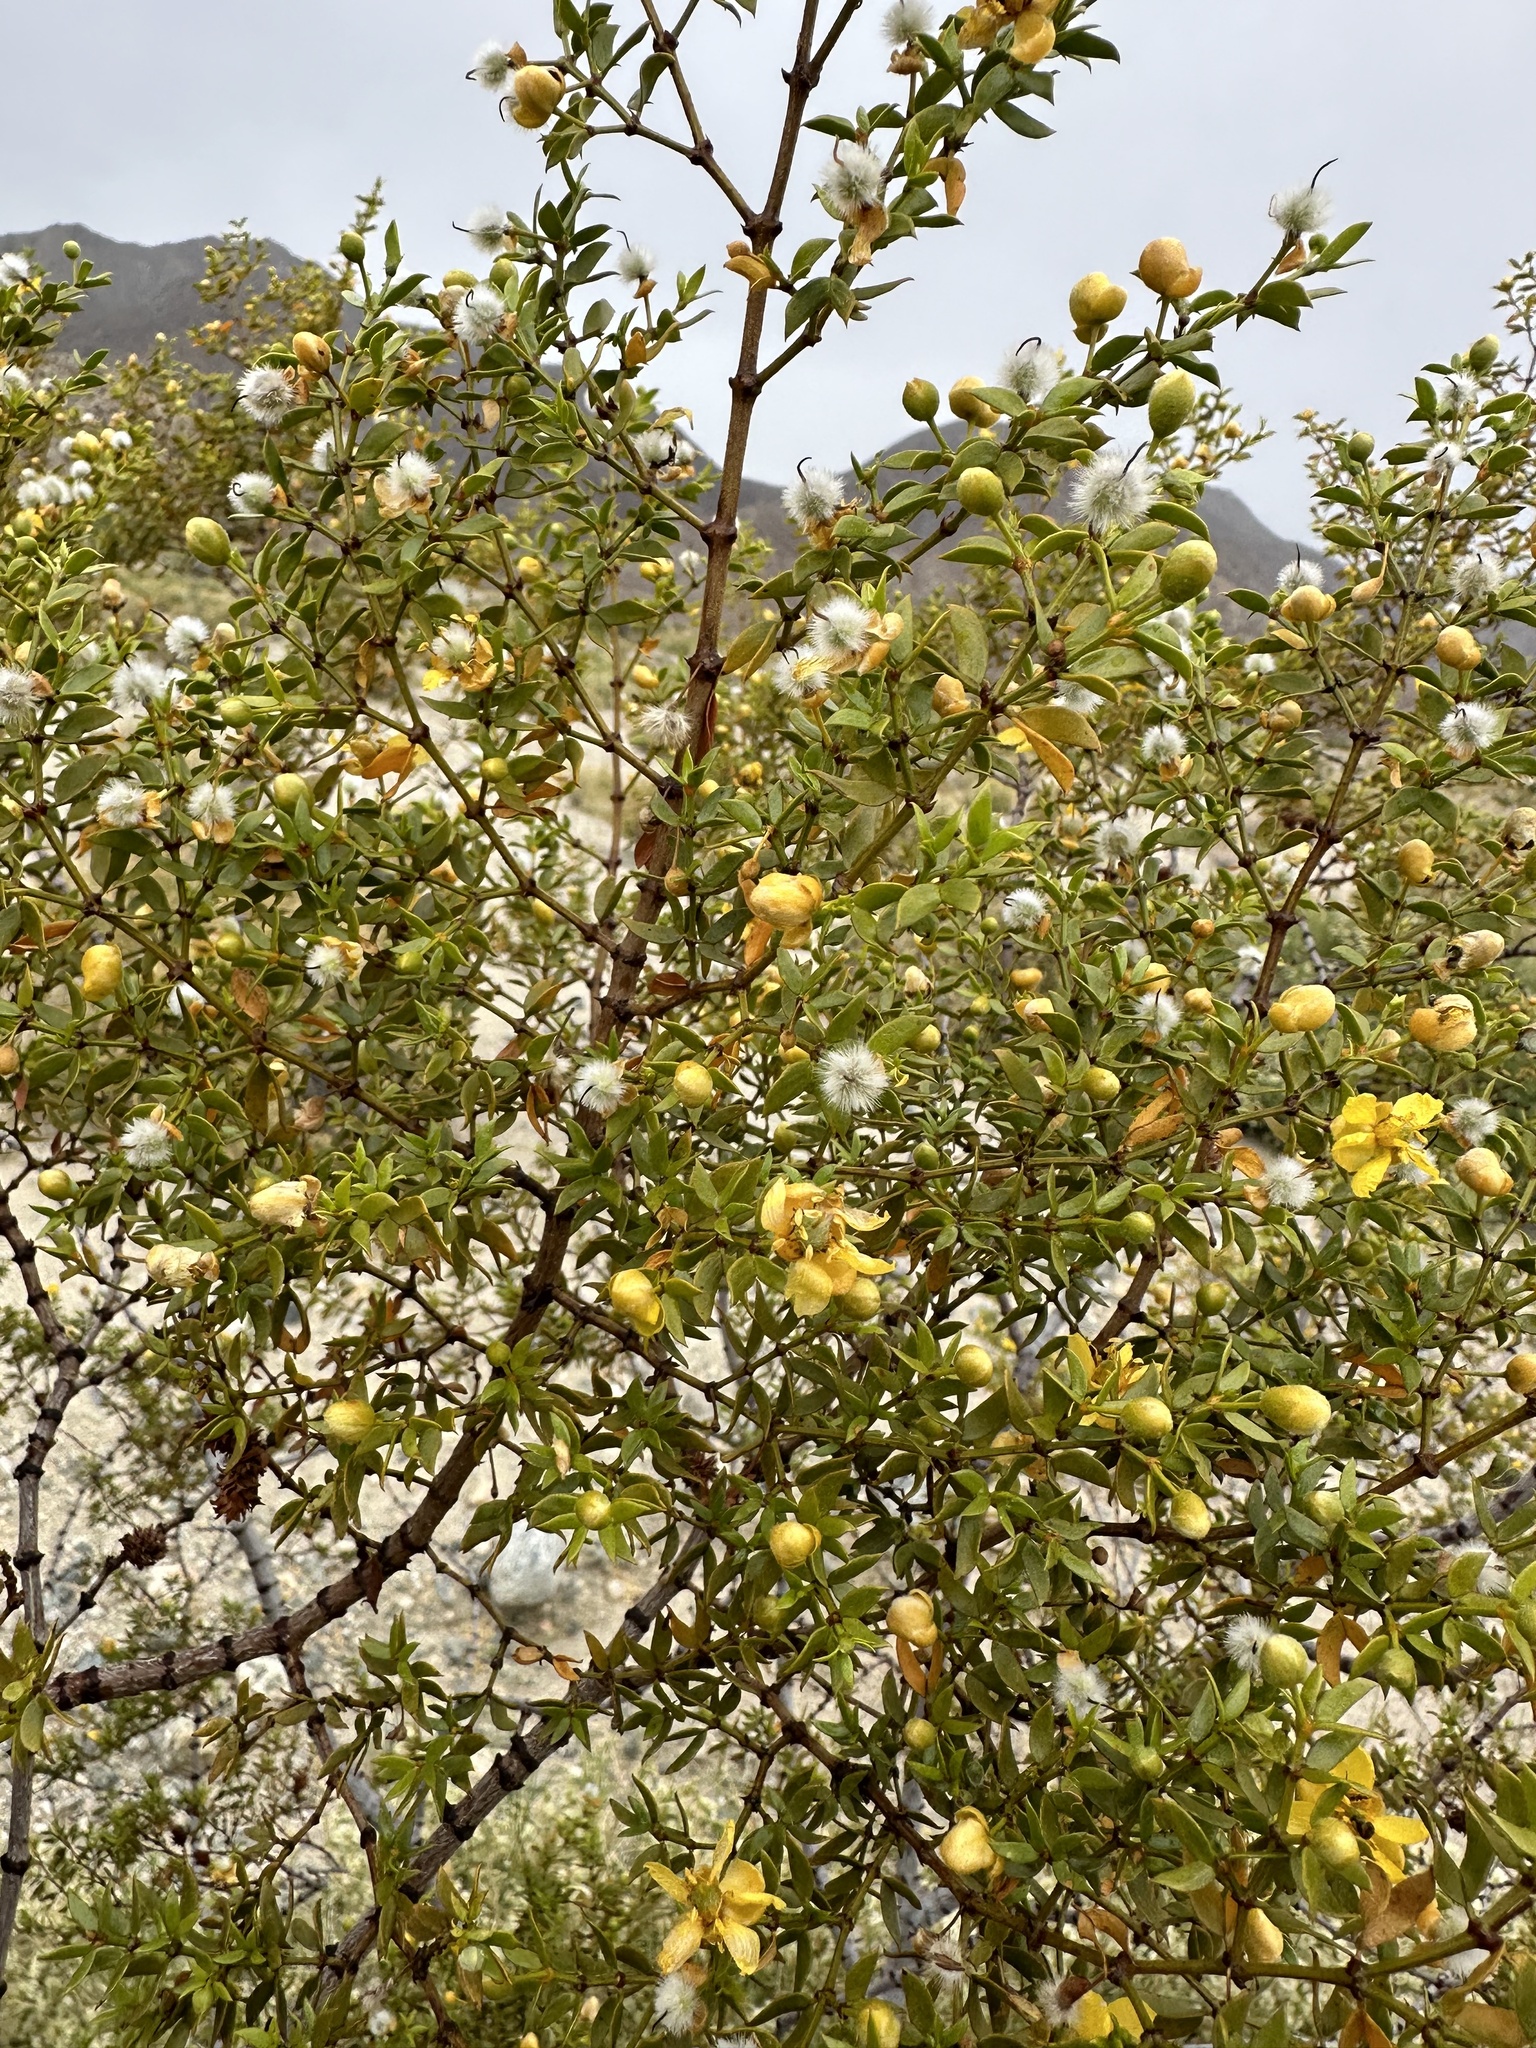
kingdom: Plantae
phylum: Tracheophyta
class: Magnoliopsida
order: Zygophyllales
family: Zygophyllaceae
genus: Larrea
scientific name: Larrea tridentata
